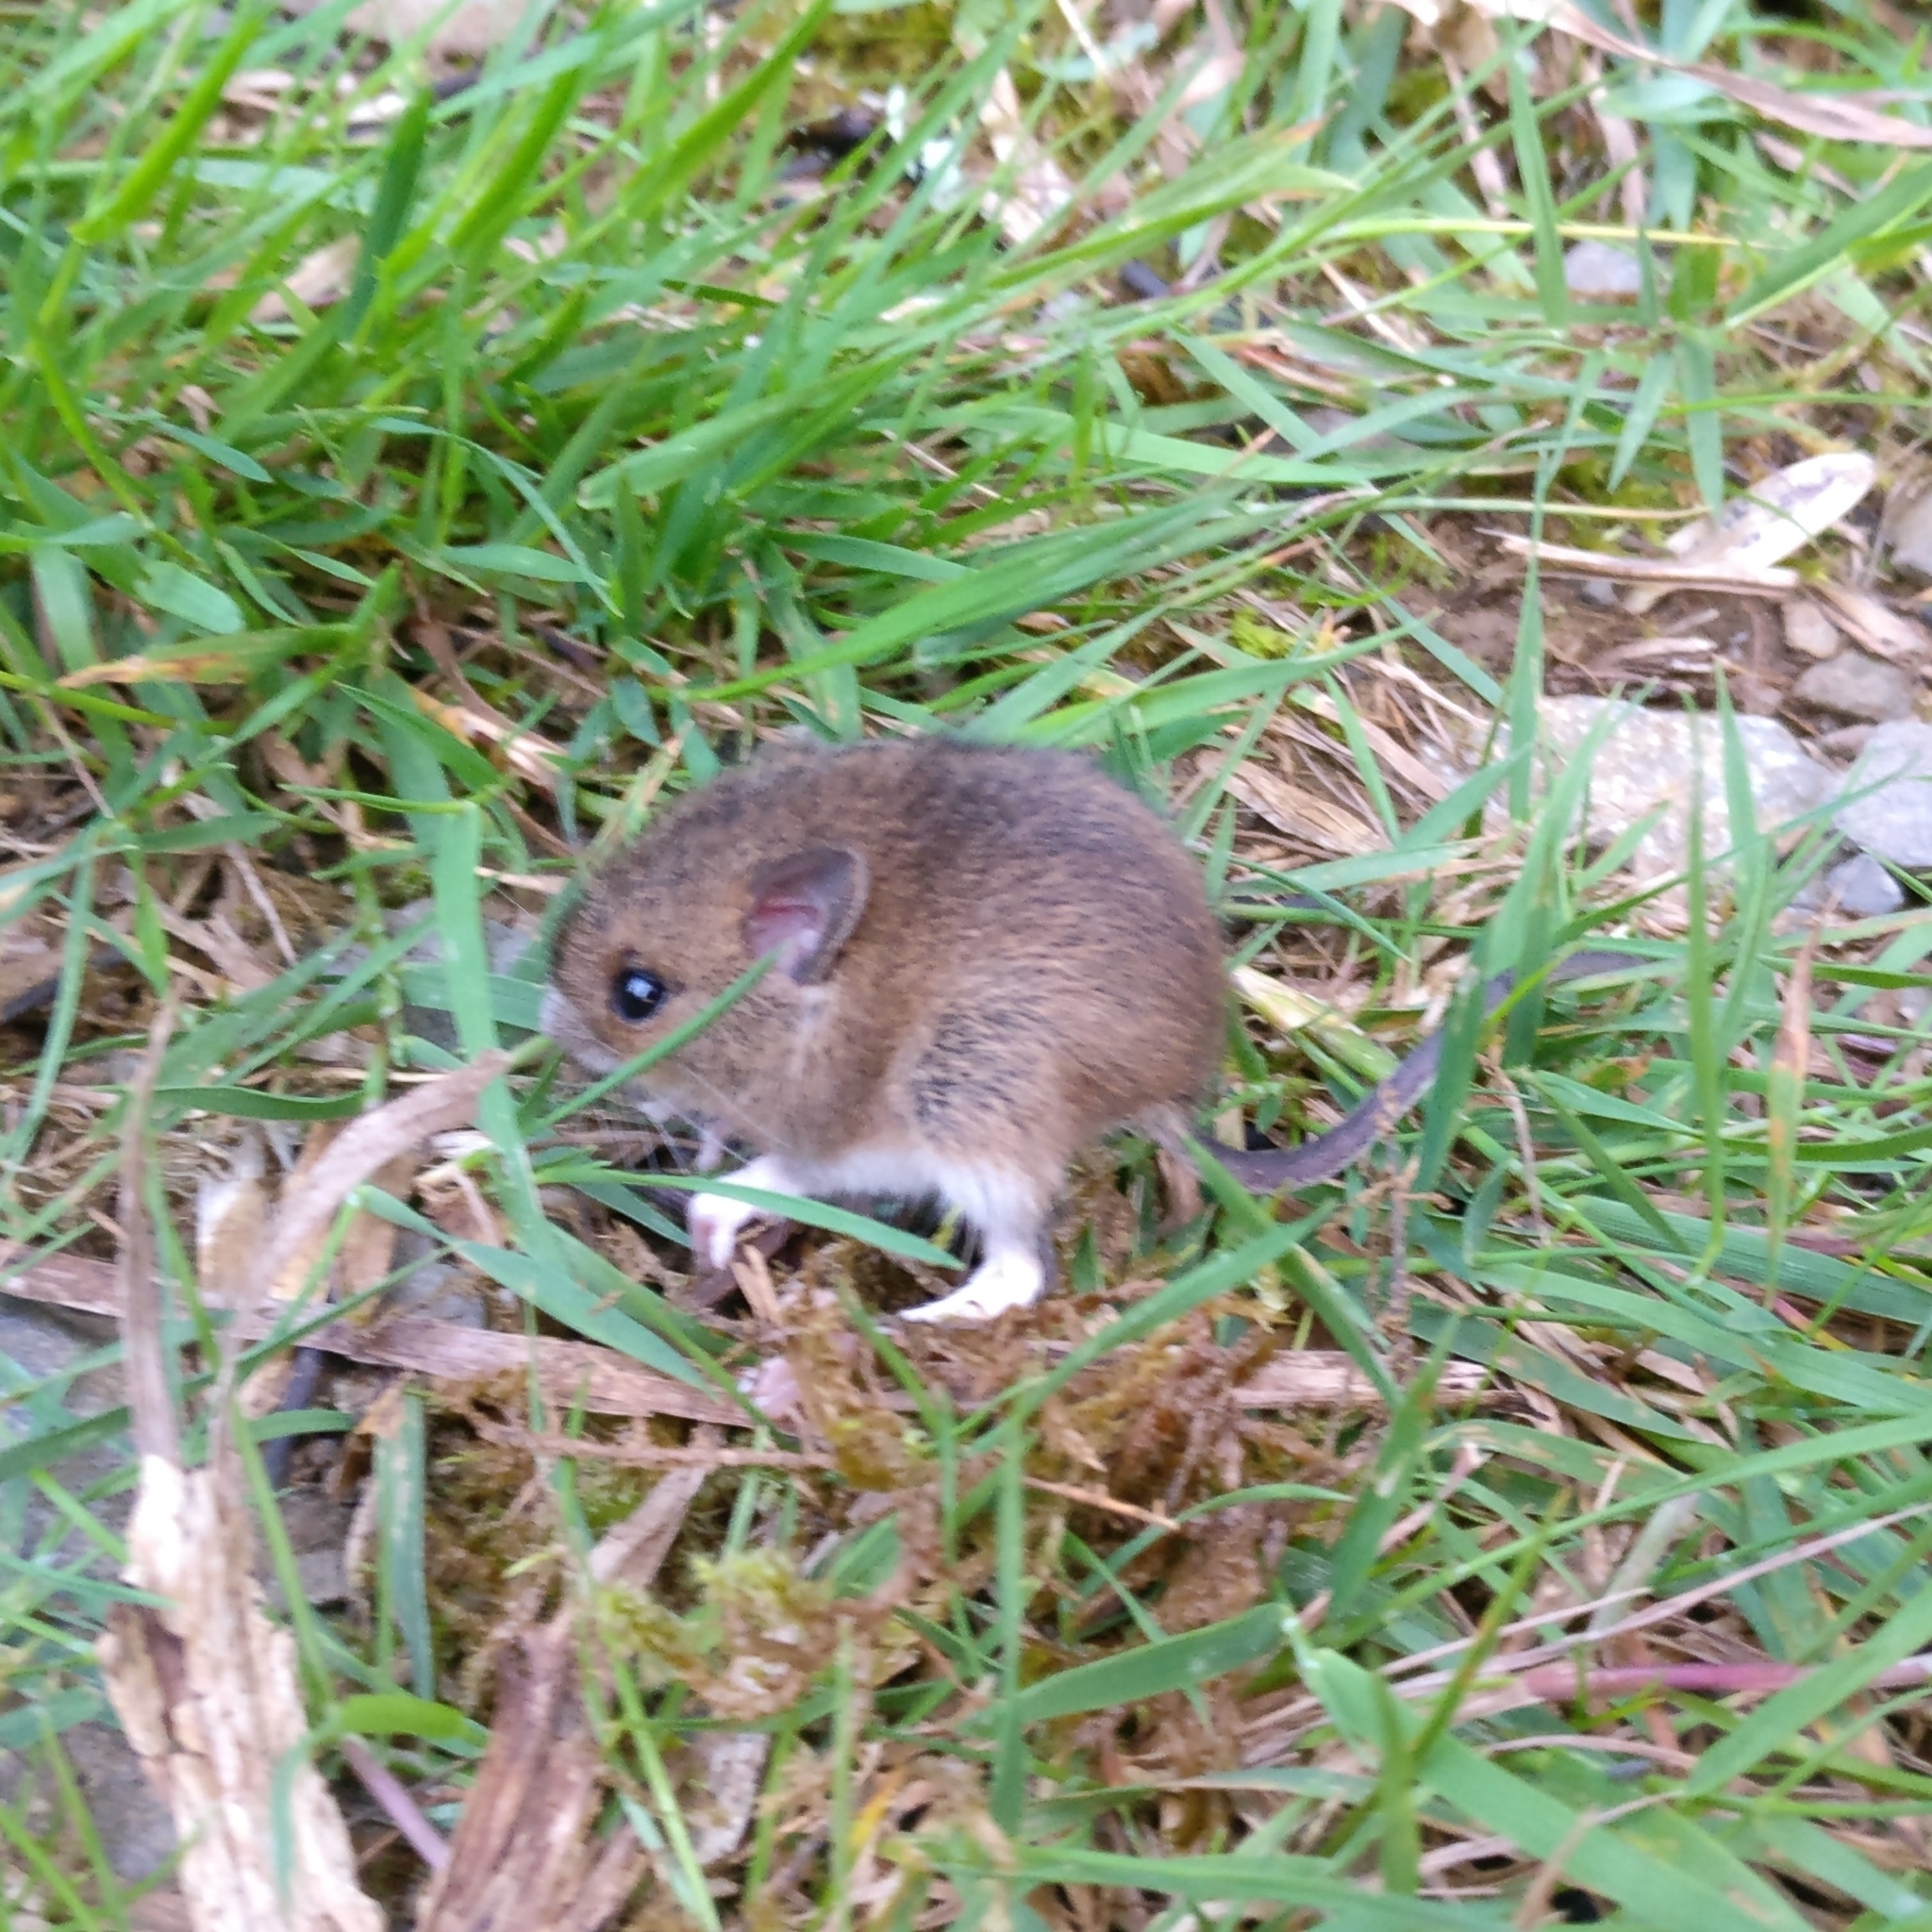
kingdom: Animalia
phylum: Chordata
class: Mammalia
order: Rodentia
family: Muridae
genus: Apodemus
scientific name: Apodemus sylvaticus
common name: Wood mouse
